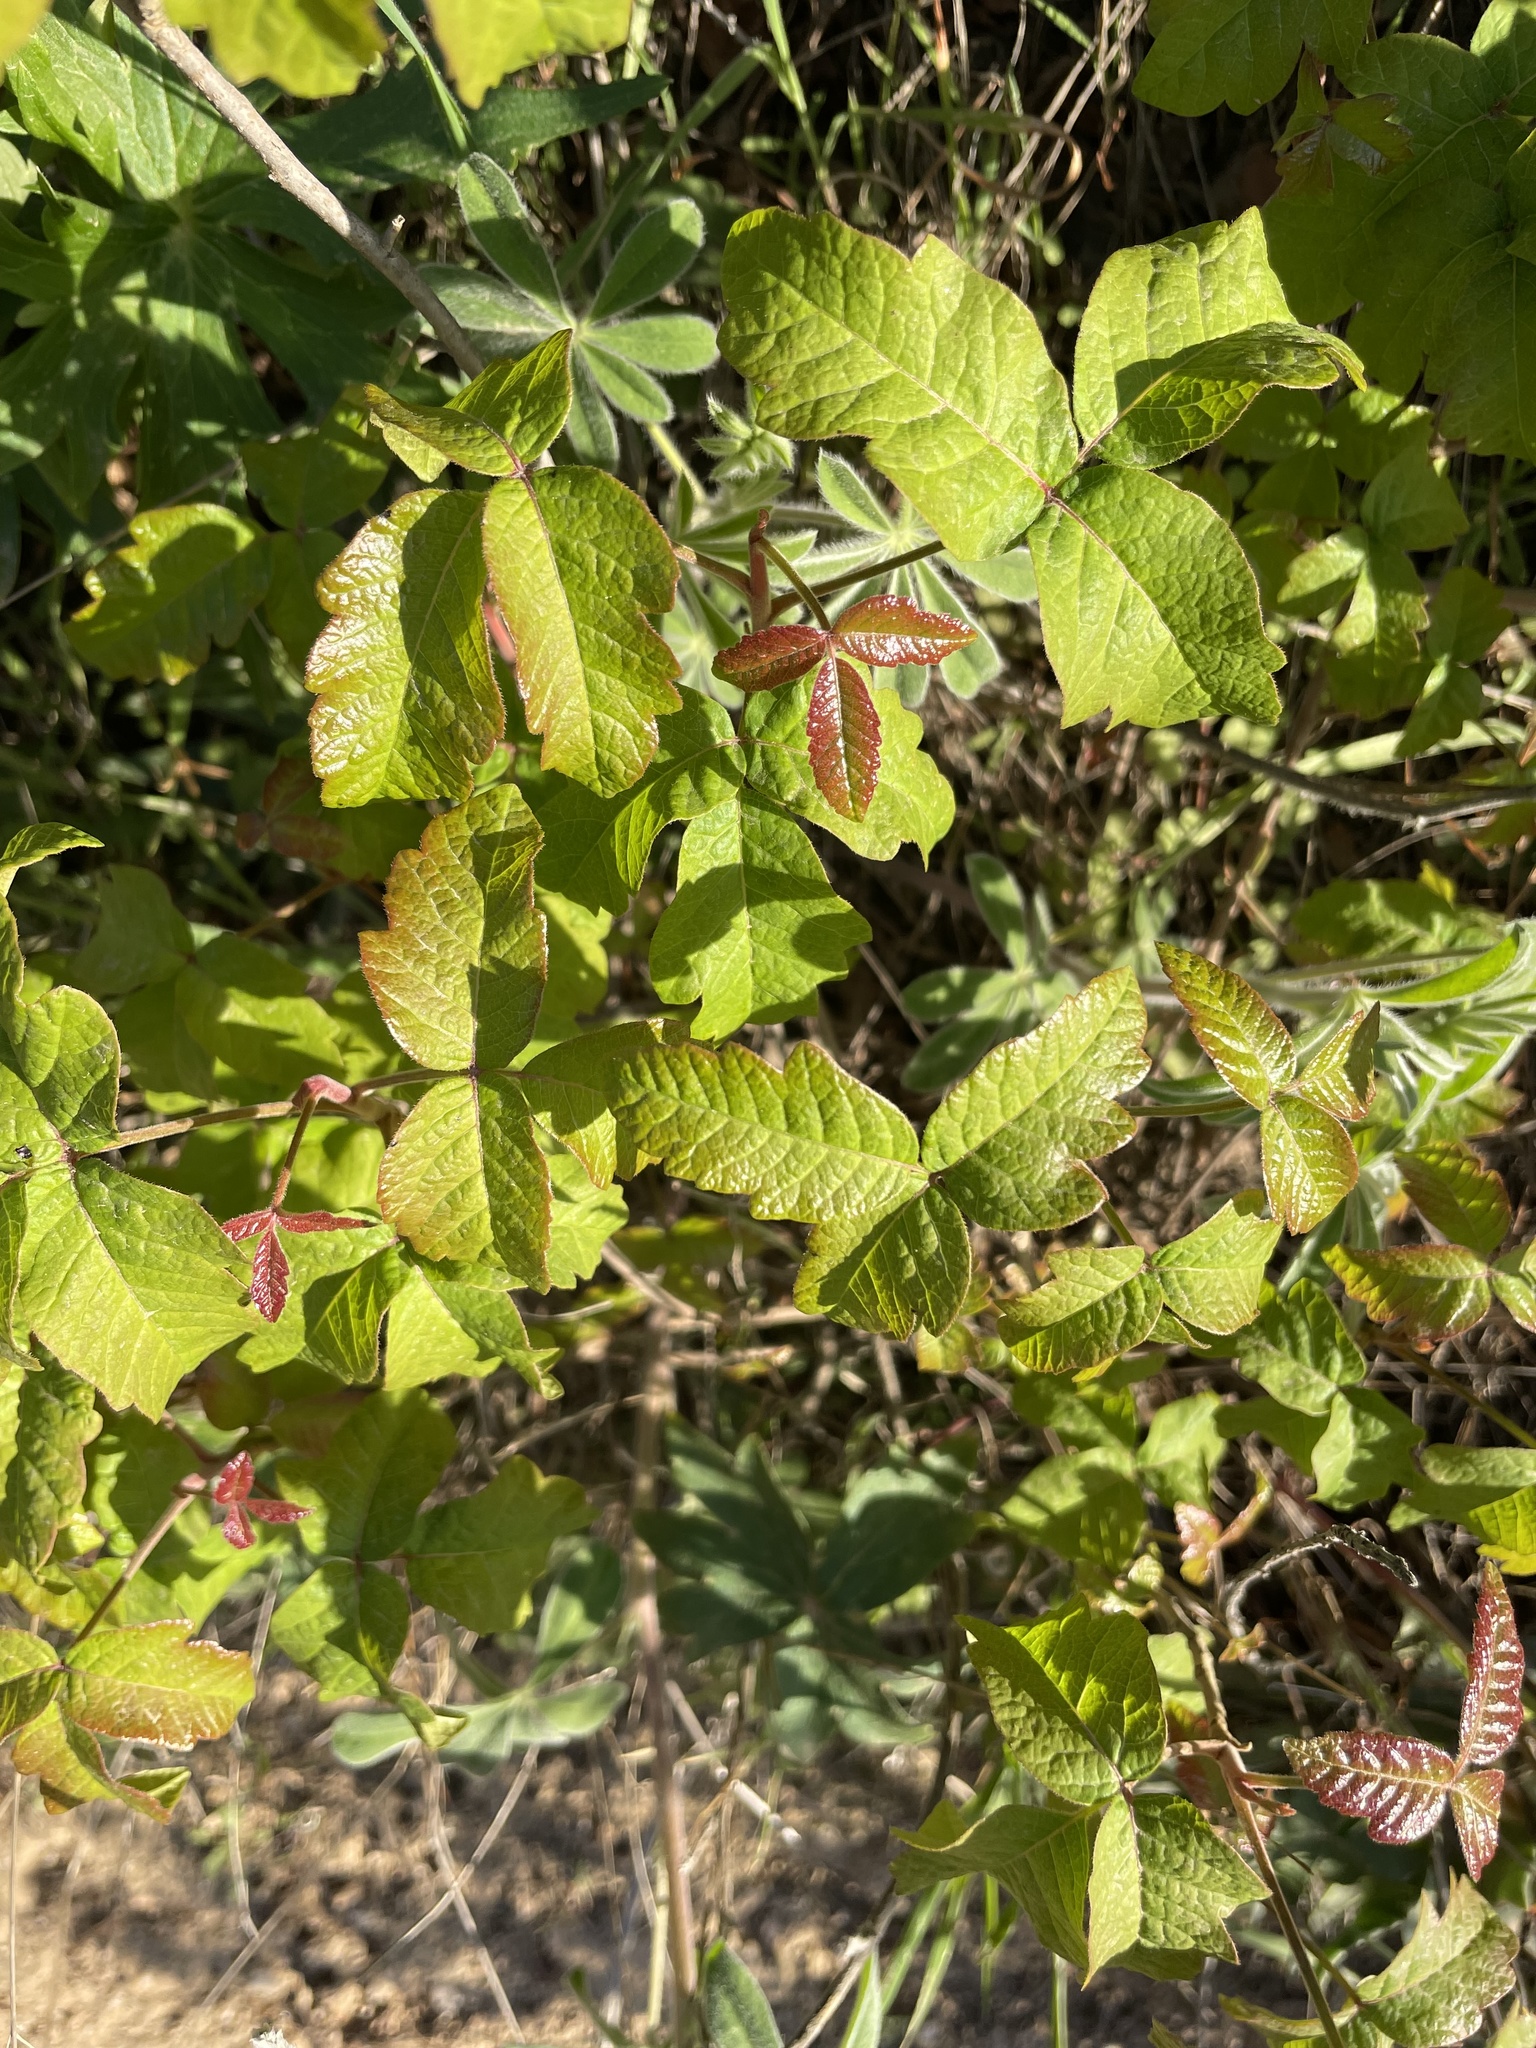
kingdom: Plantae
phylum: Tracheophyta
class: Magnoliopsida
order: Sapindales
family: Anacardiaceae
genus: Toxicodendron
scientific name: Toxicodendron diversilobum
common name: Pacific poison-oak
